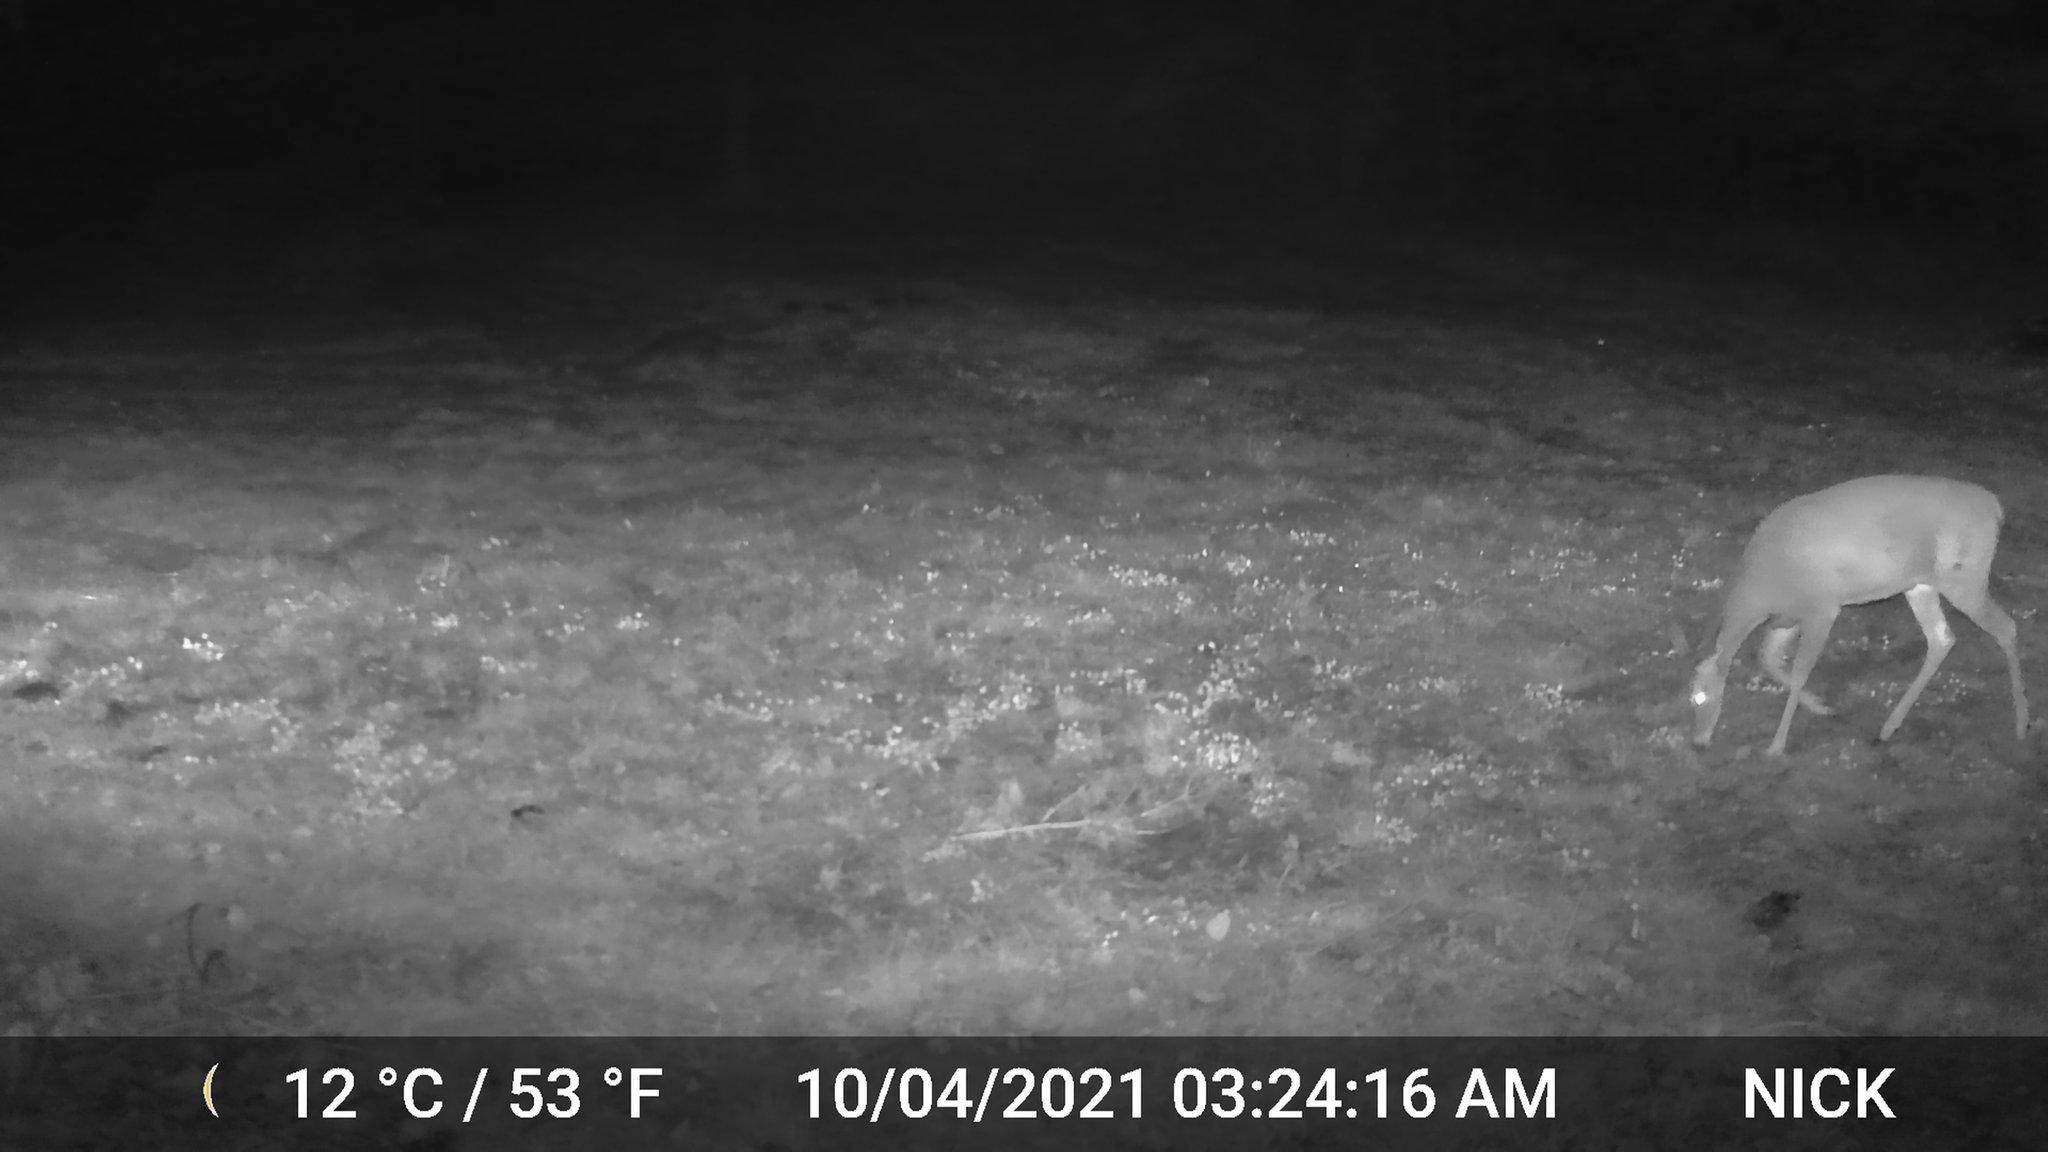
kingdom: Animalia
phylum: Chordata
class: Mammalia
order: Artiodactyla
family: Cervidae
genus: Odocoileus
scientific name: Odocoileus virginianus
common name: White-tailed deer
